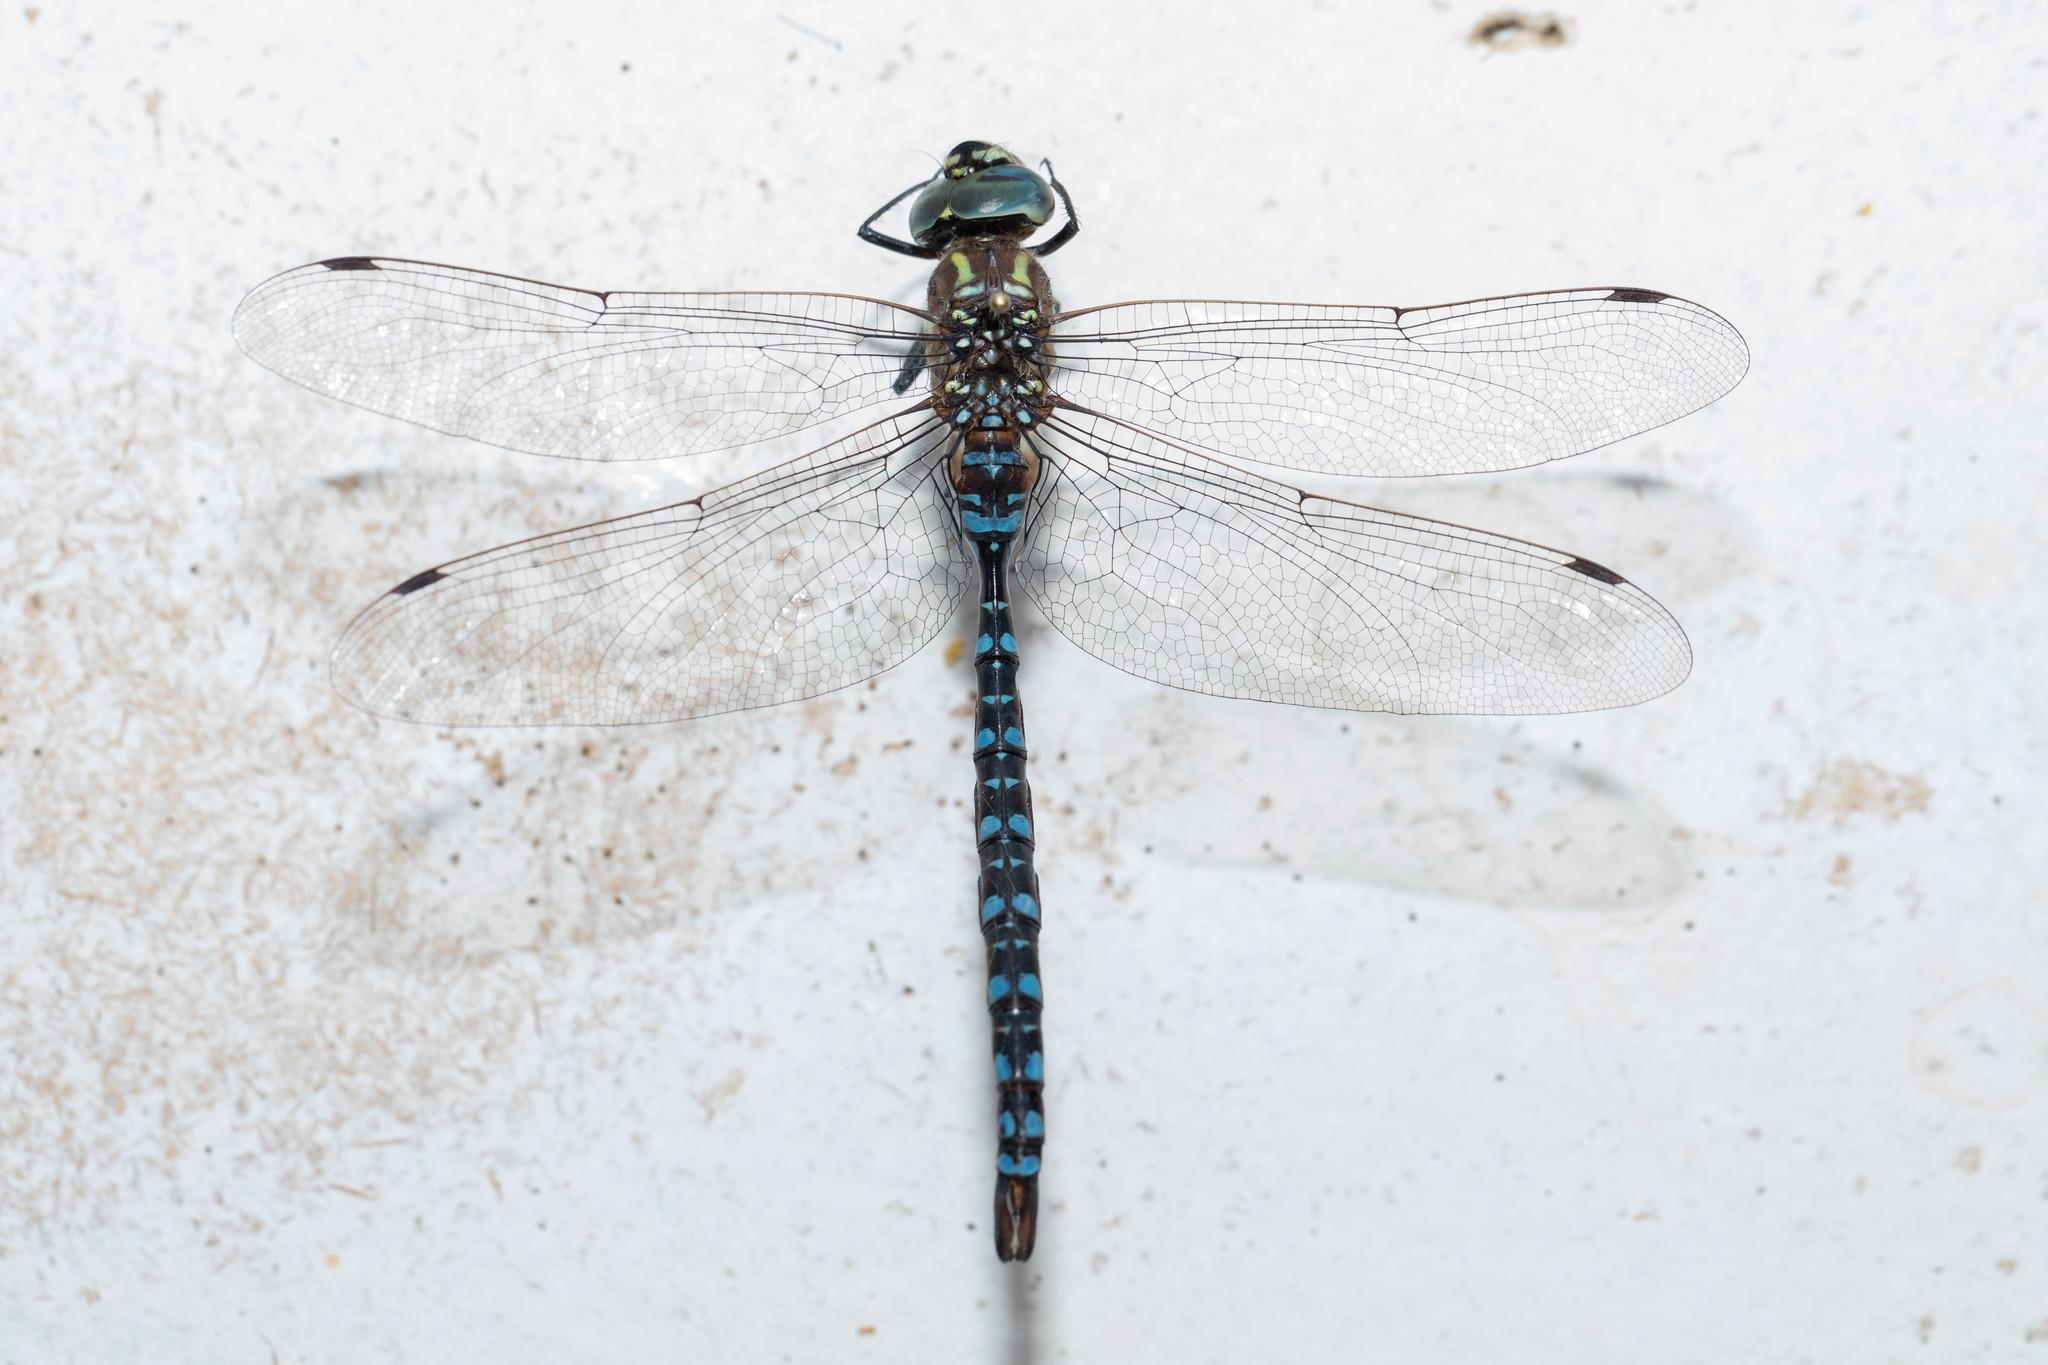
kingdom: Animalia
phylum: Arthropoda
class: Insecta
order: Odonata
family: Aeshnidae
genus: Aeshna
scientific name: Aeshna palmata
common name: Paddle-tailed darner
